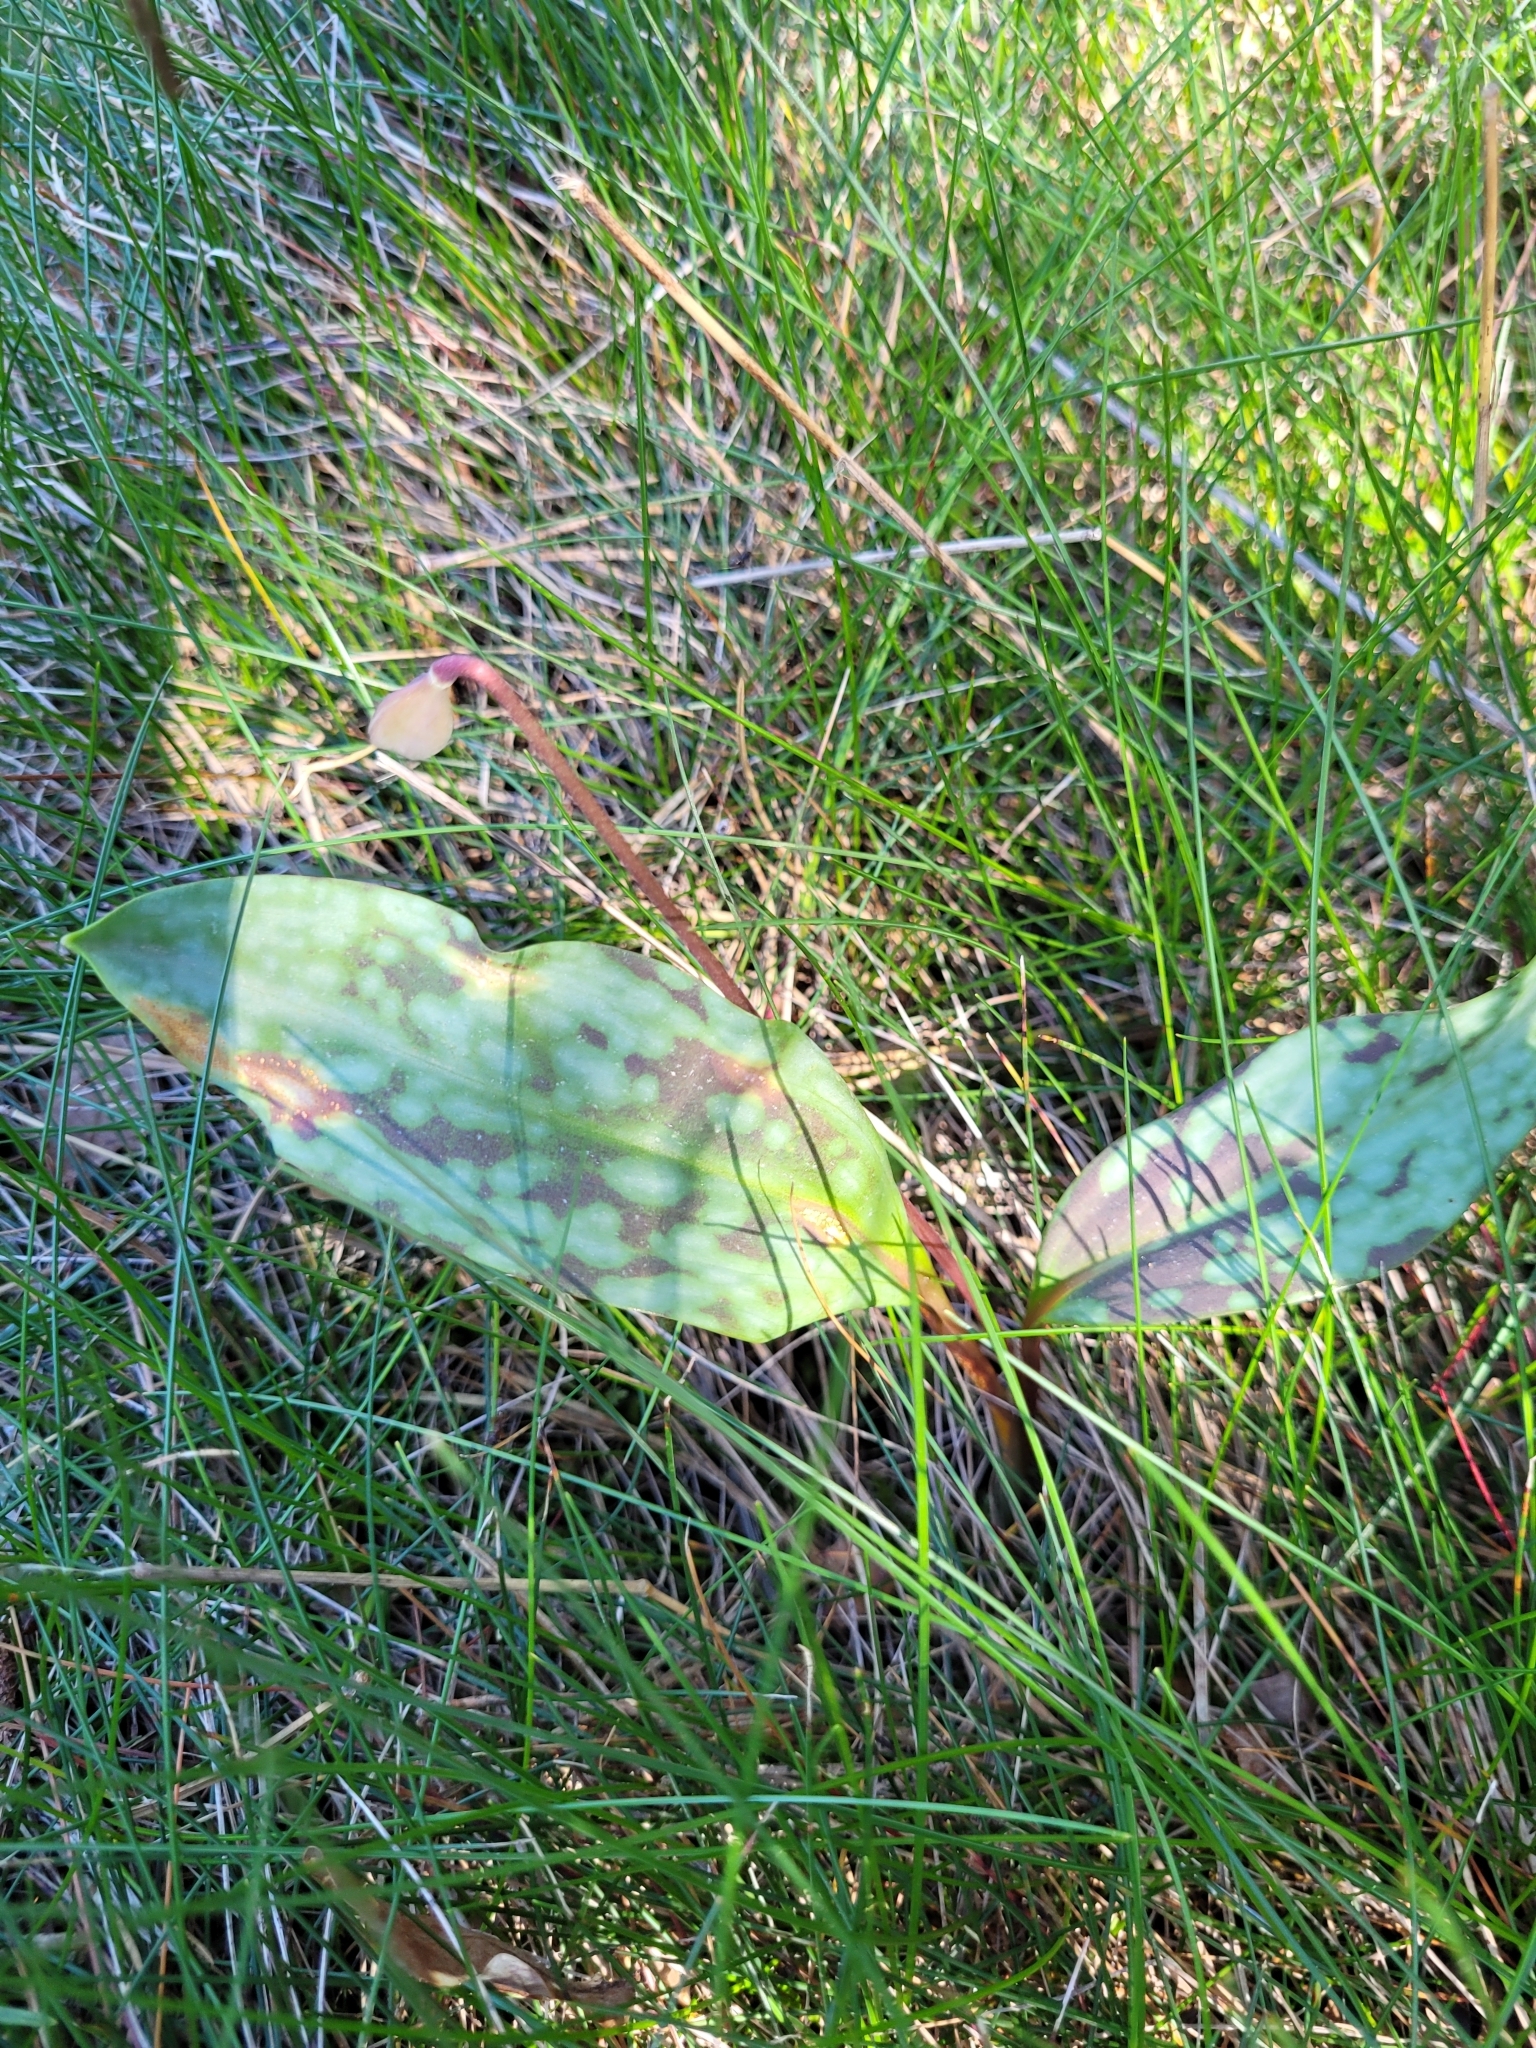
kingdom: Plantae
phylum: Tracheophyta
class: Liliopsida
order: Liliales
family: Liliaceae
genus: Erythronium
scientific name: Erythronium dens-canis
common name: Dog's-tooth-violet
